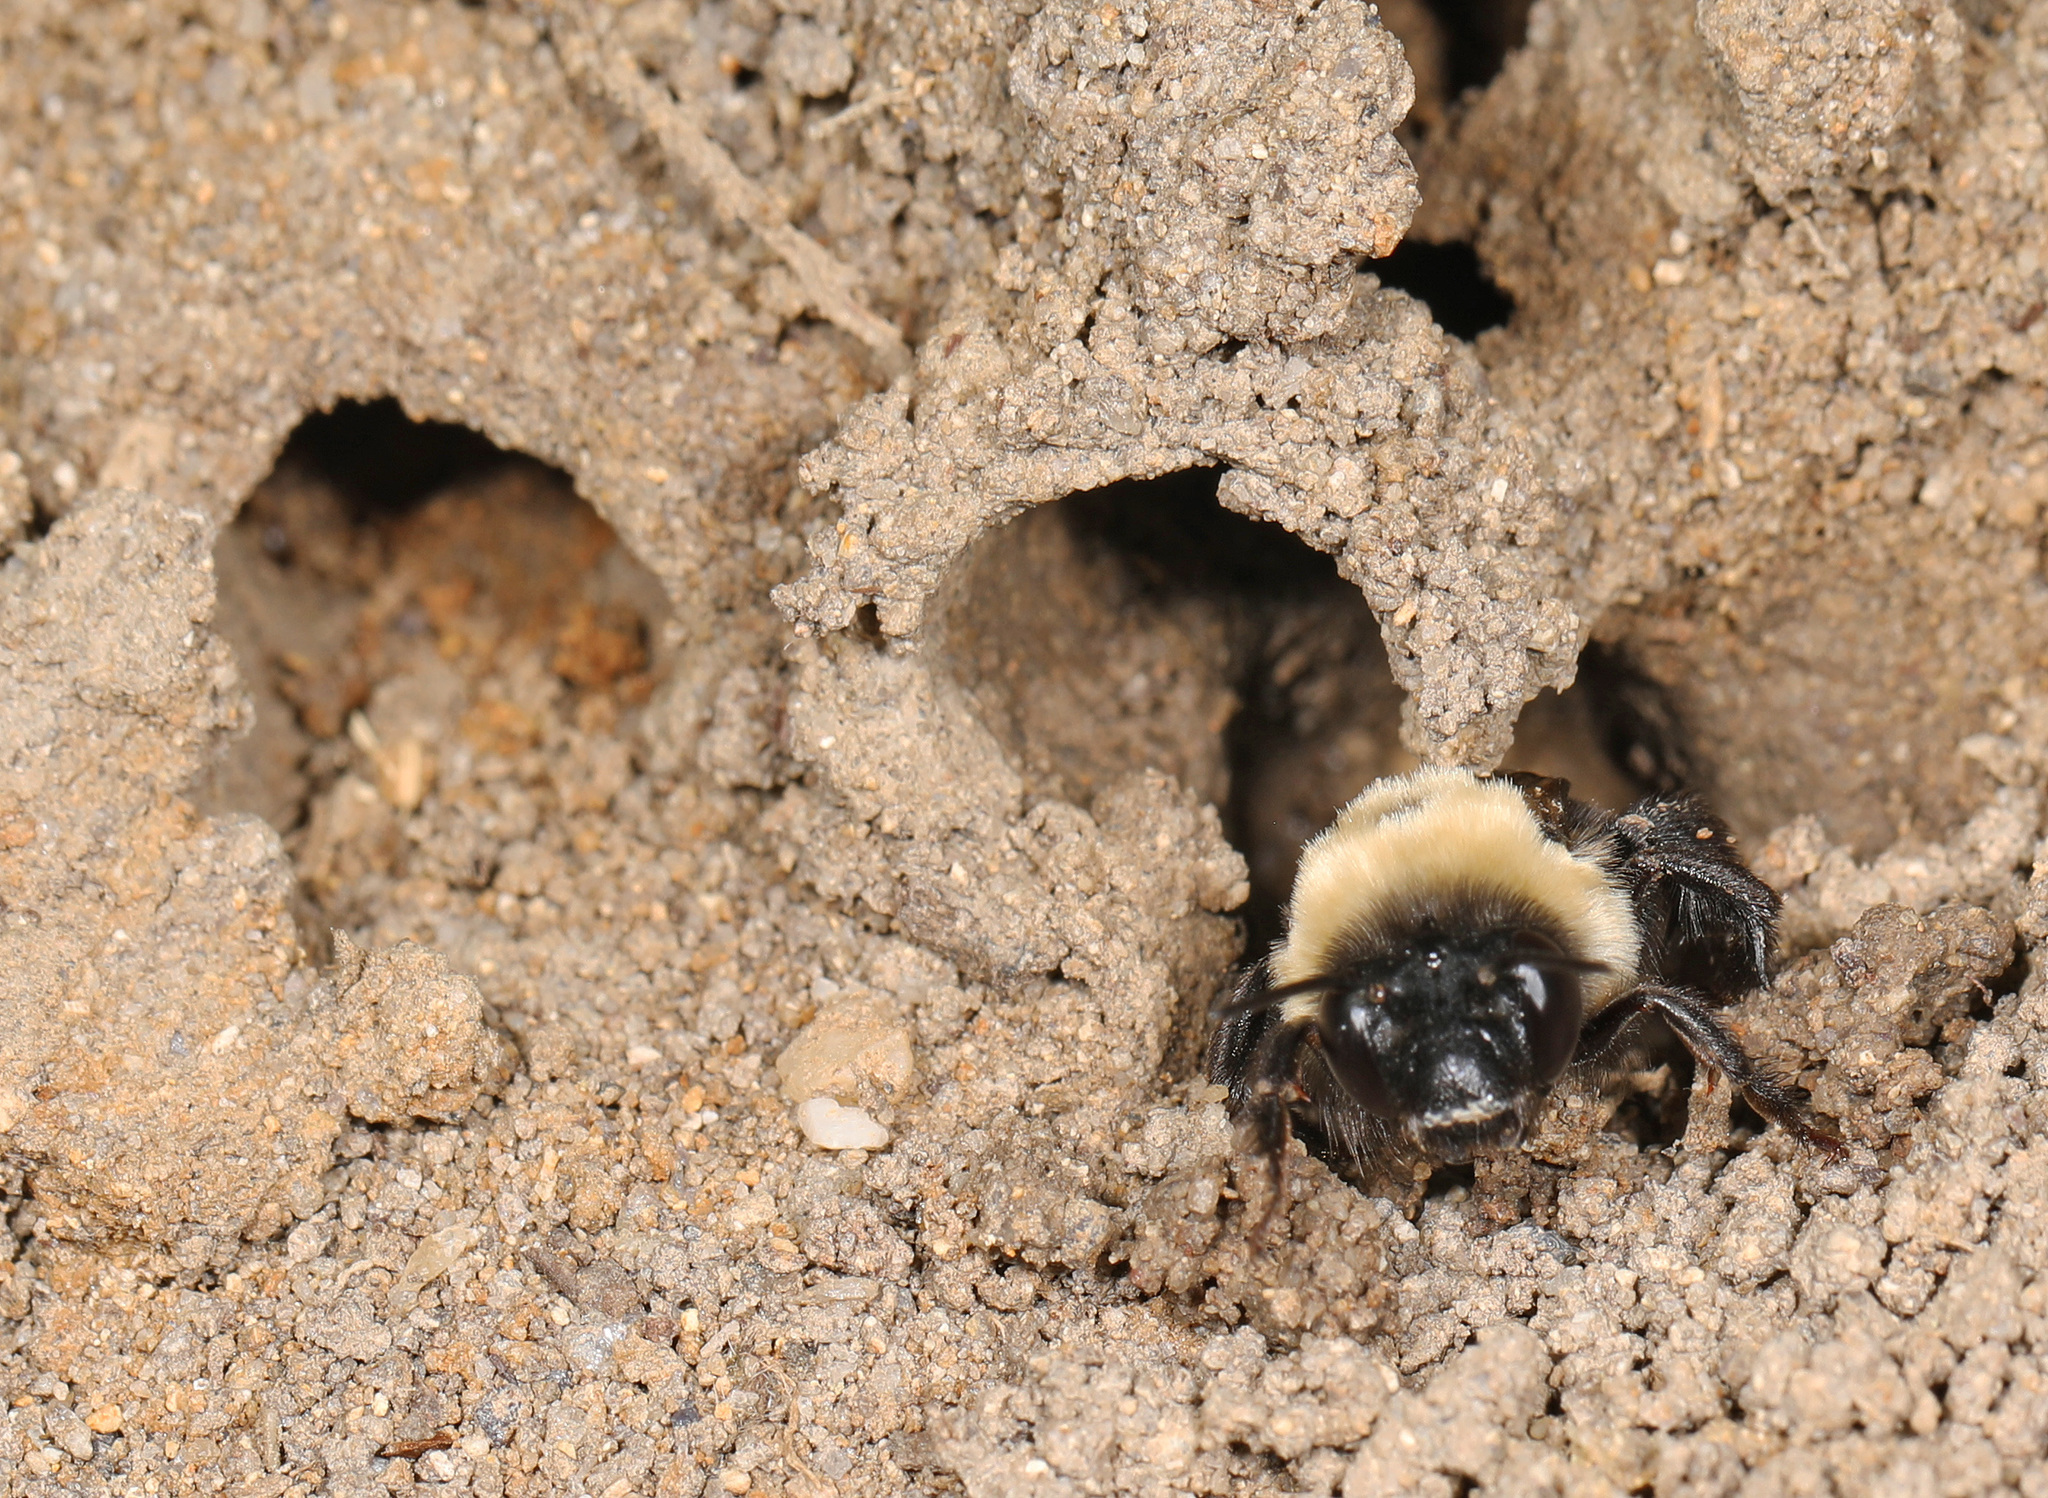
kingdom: Animalia
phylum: Arthropoda
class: Insecta
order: Hymenoptera
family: Apidae
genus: Anthophora
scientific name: Anthophora abrupta
